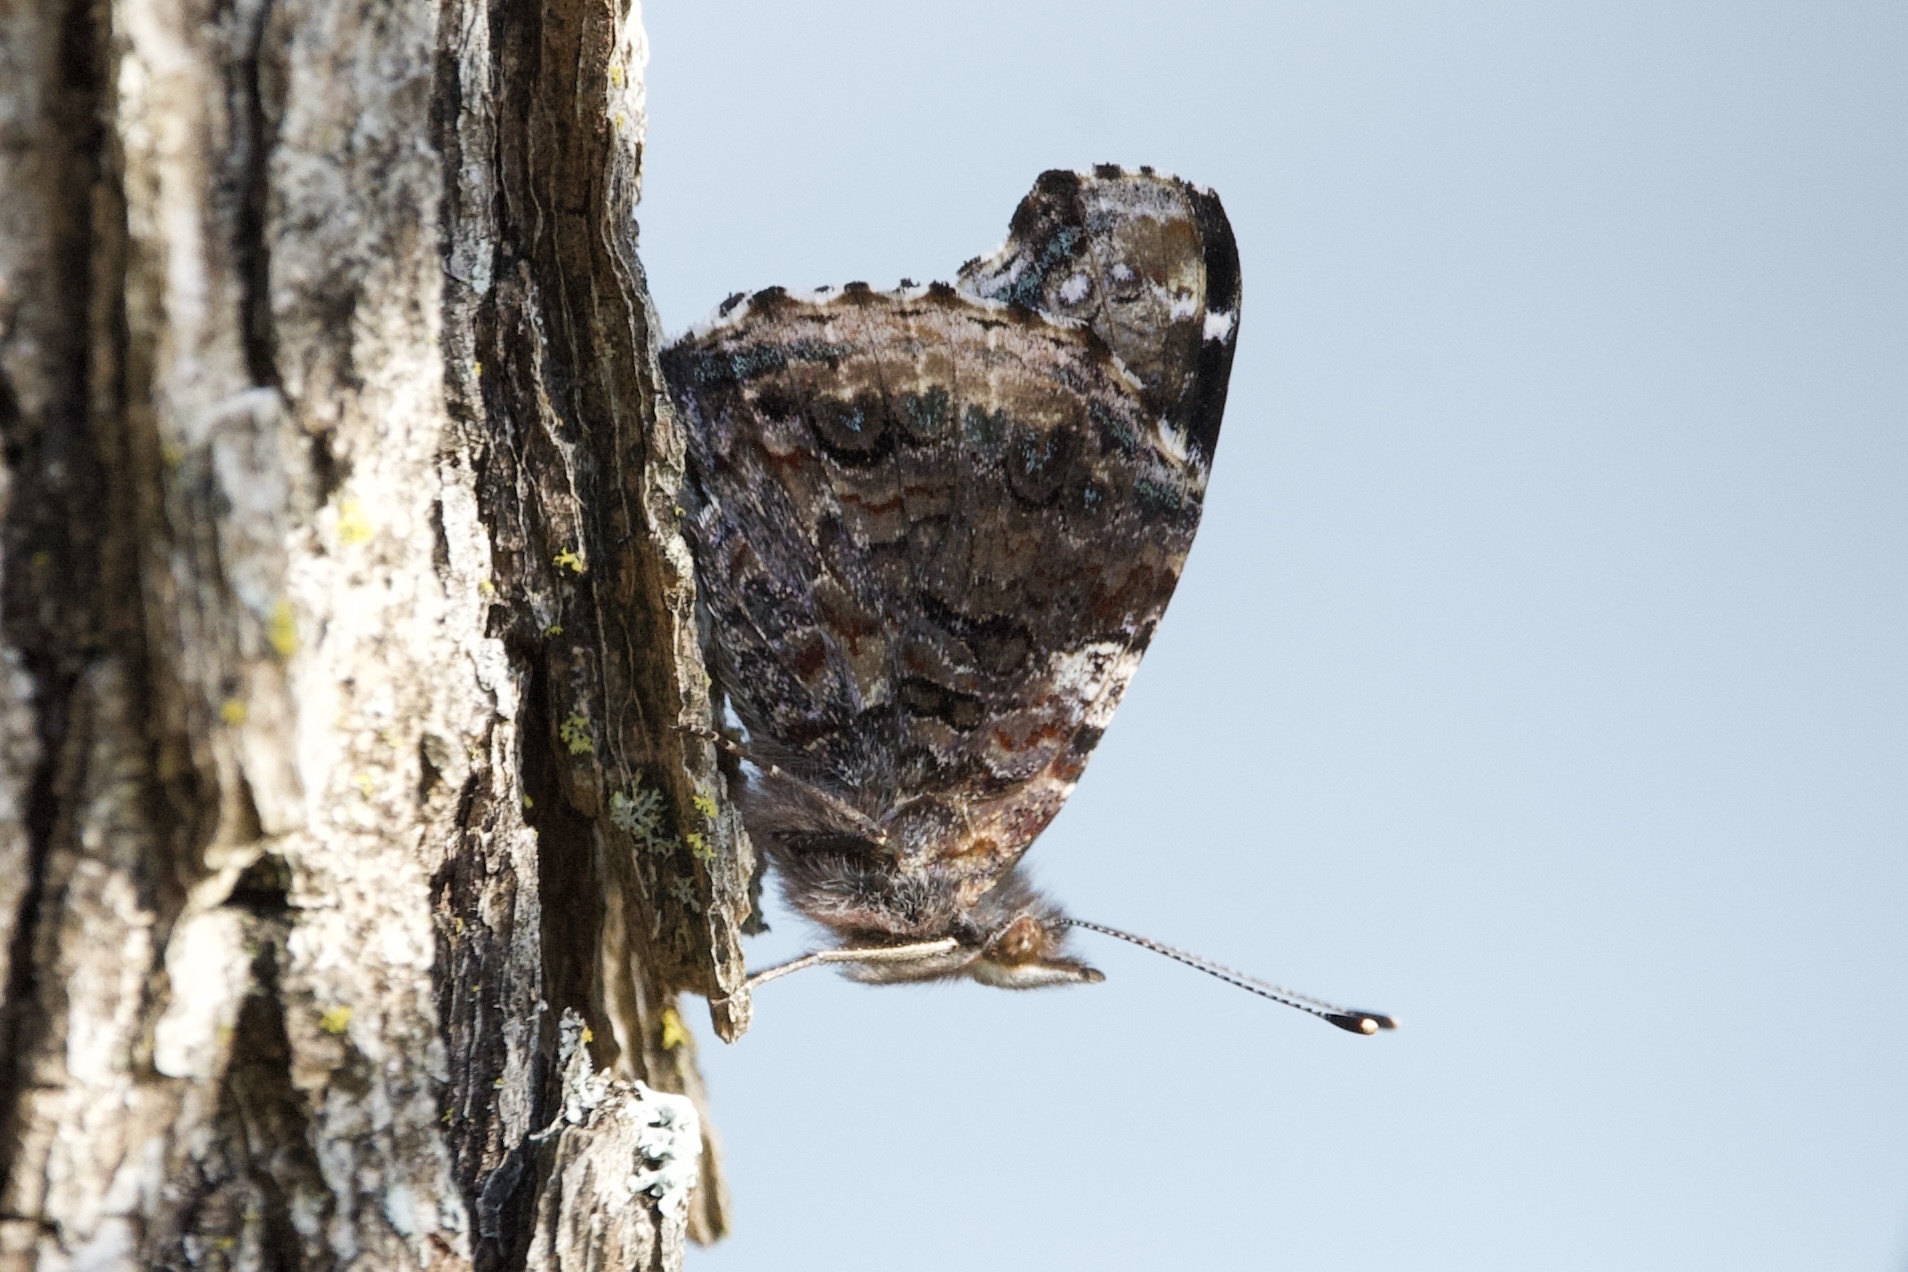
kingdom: Animalia
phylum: Arthropoda
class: Insecta
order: Lepidoptera
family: Nymphalidae
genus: Vanessa
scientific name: Vanessa atalanta
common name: Red admiral
